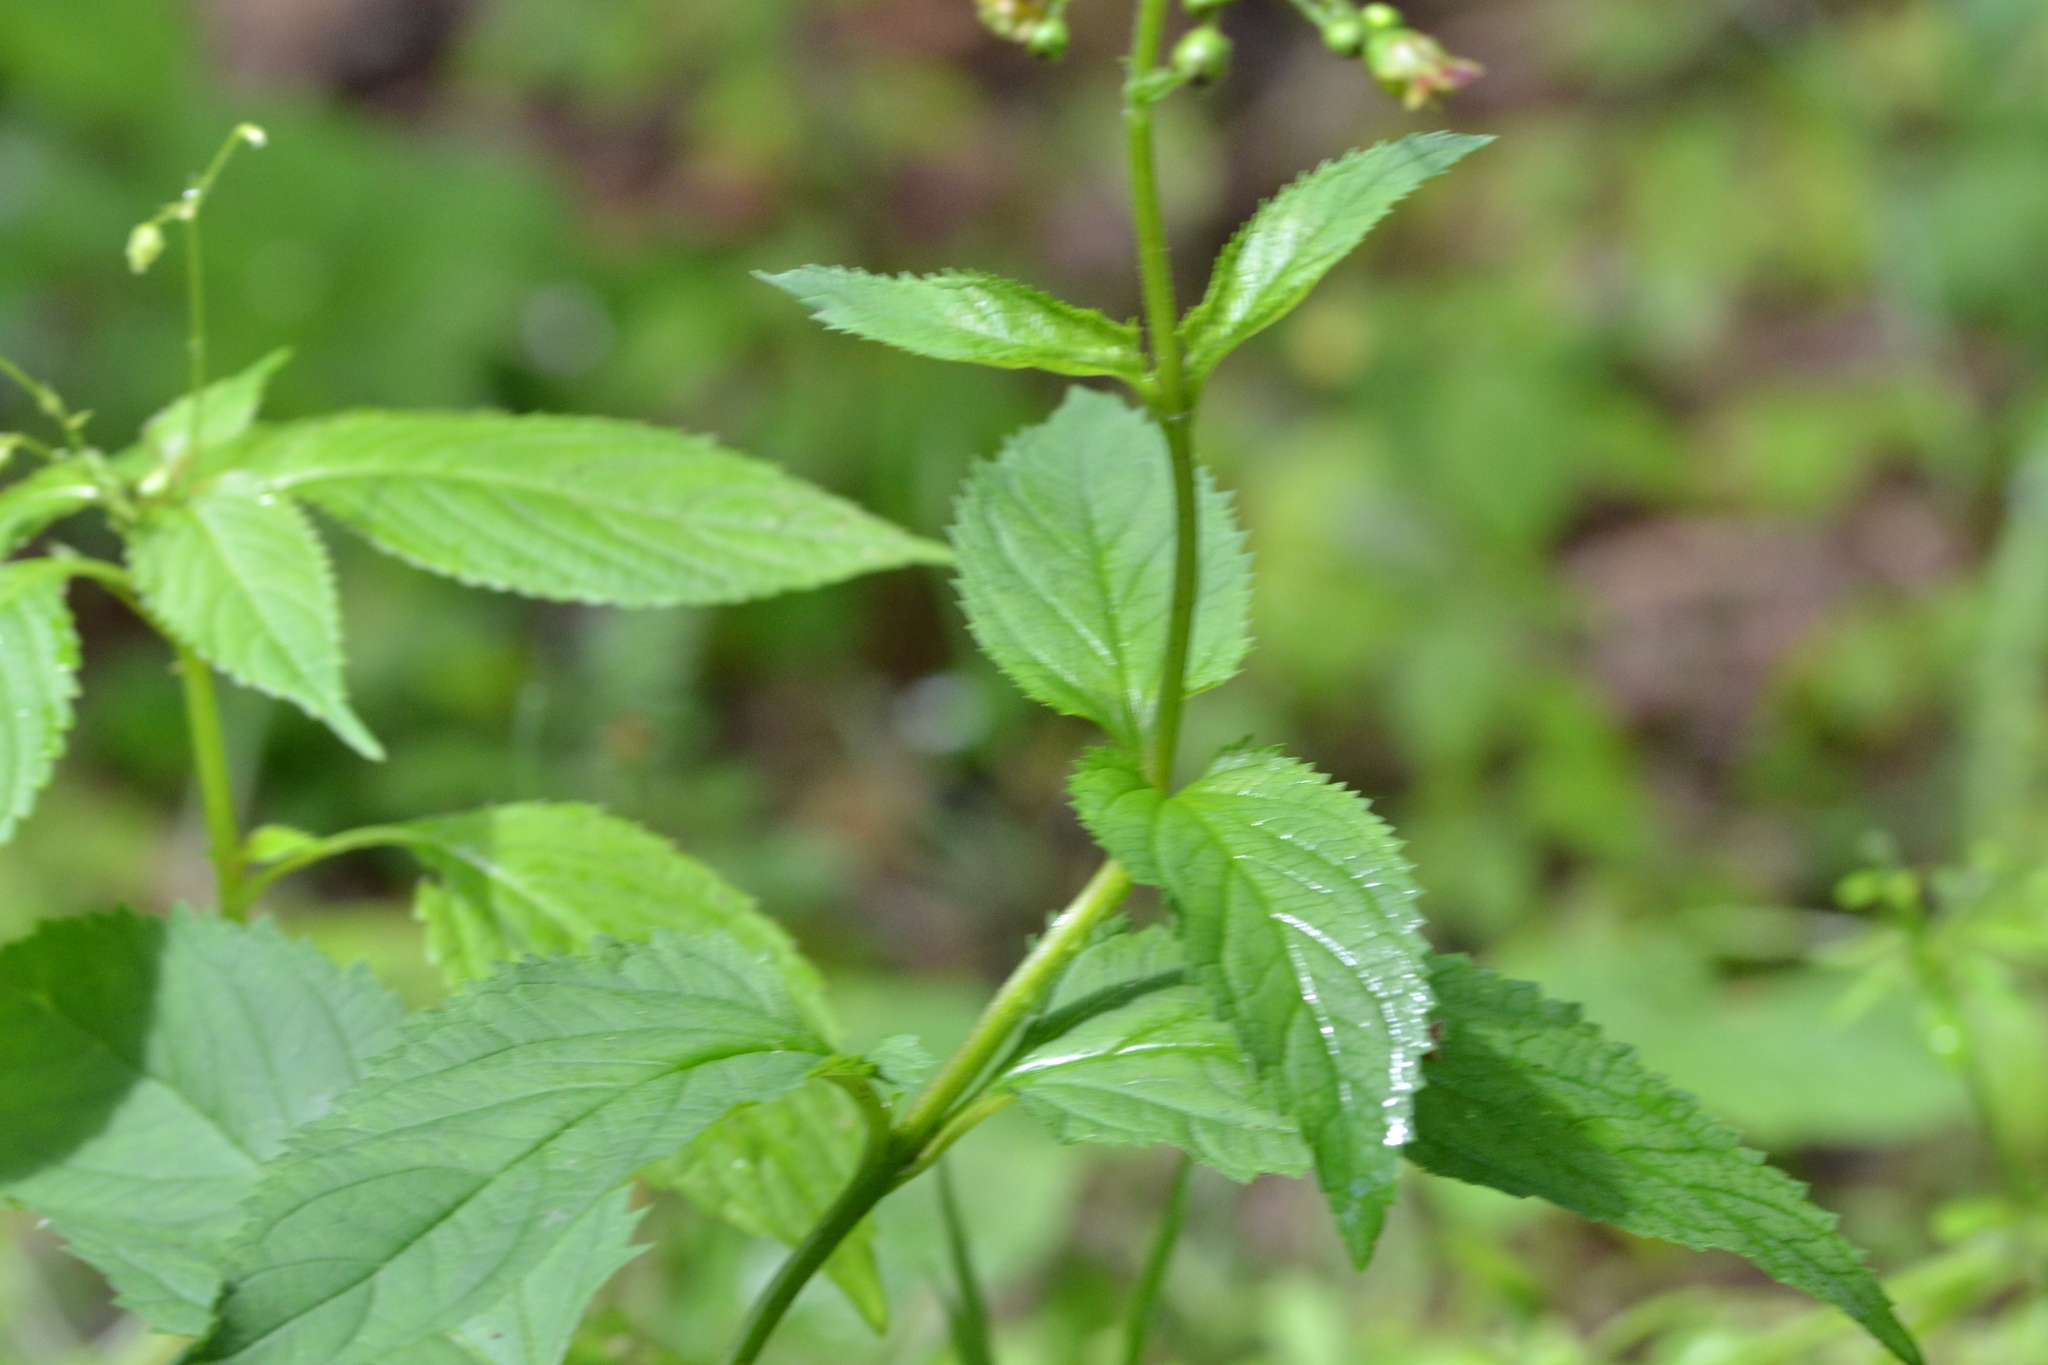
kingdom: Plantae
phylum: Tracheophyta
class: Magnoliopsida
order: Lamiales
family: Scrophulariaceae
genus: Scrophularia
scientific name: Scrophularia nodosa
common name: Common figwort
